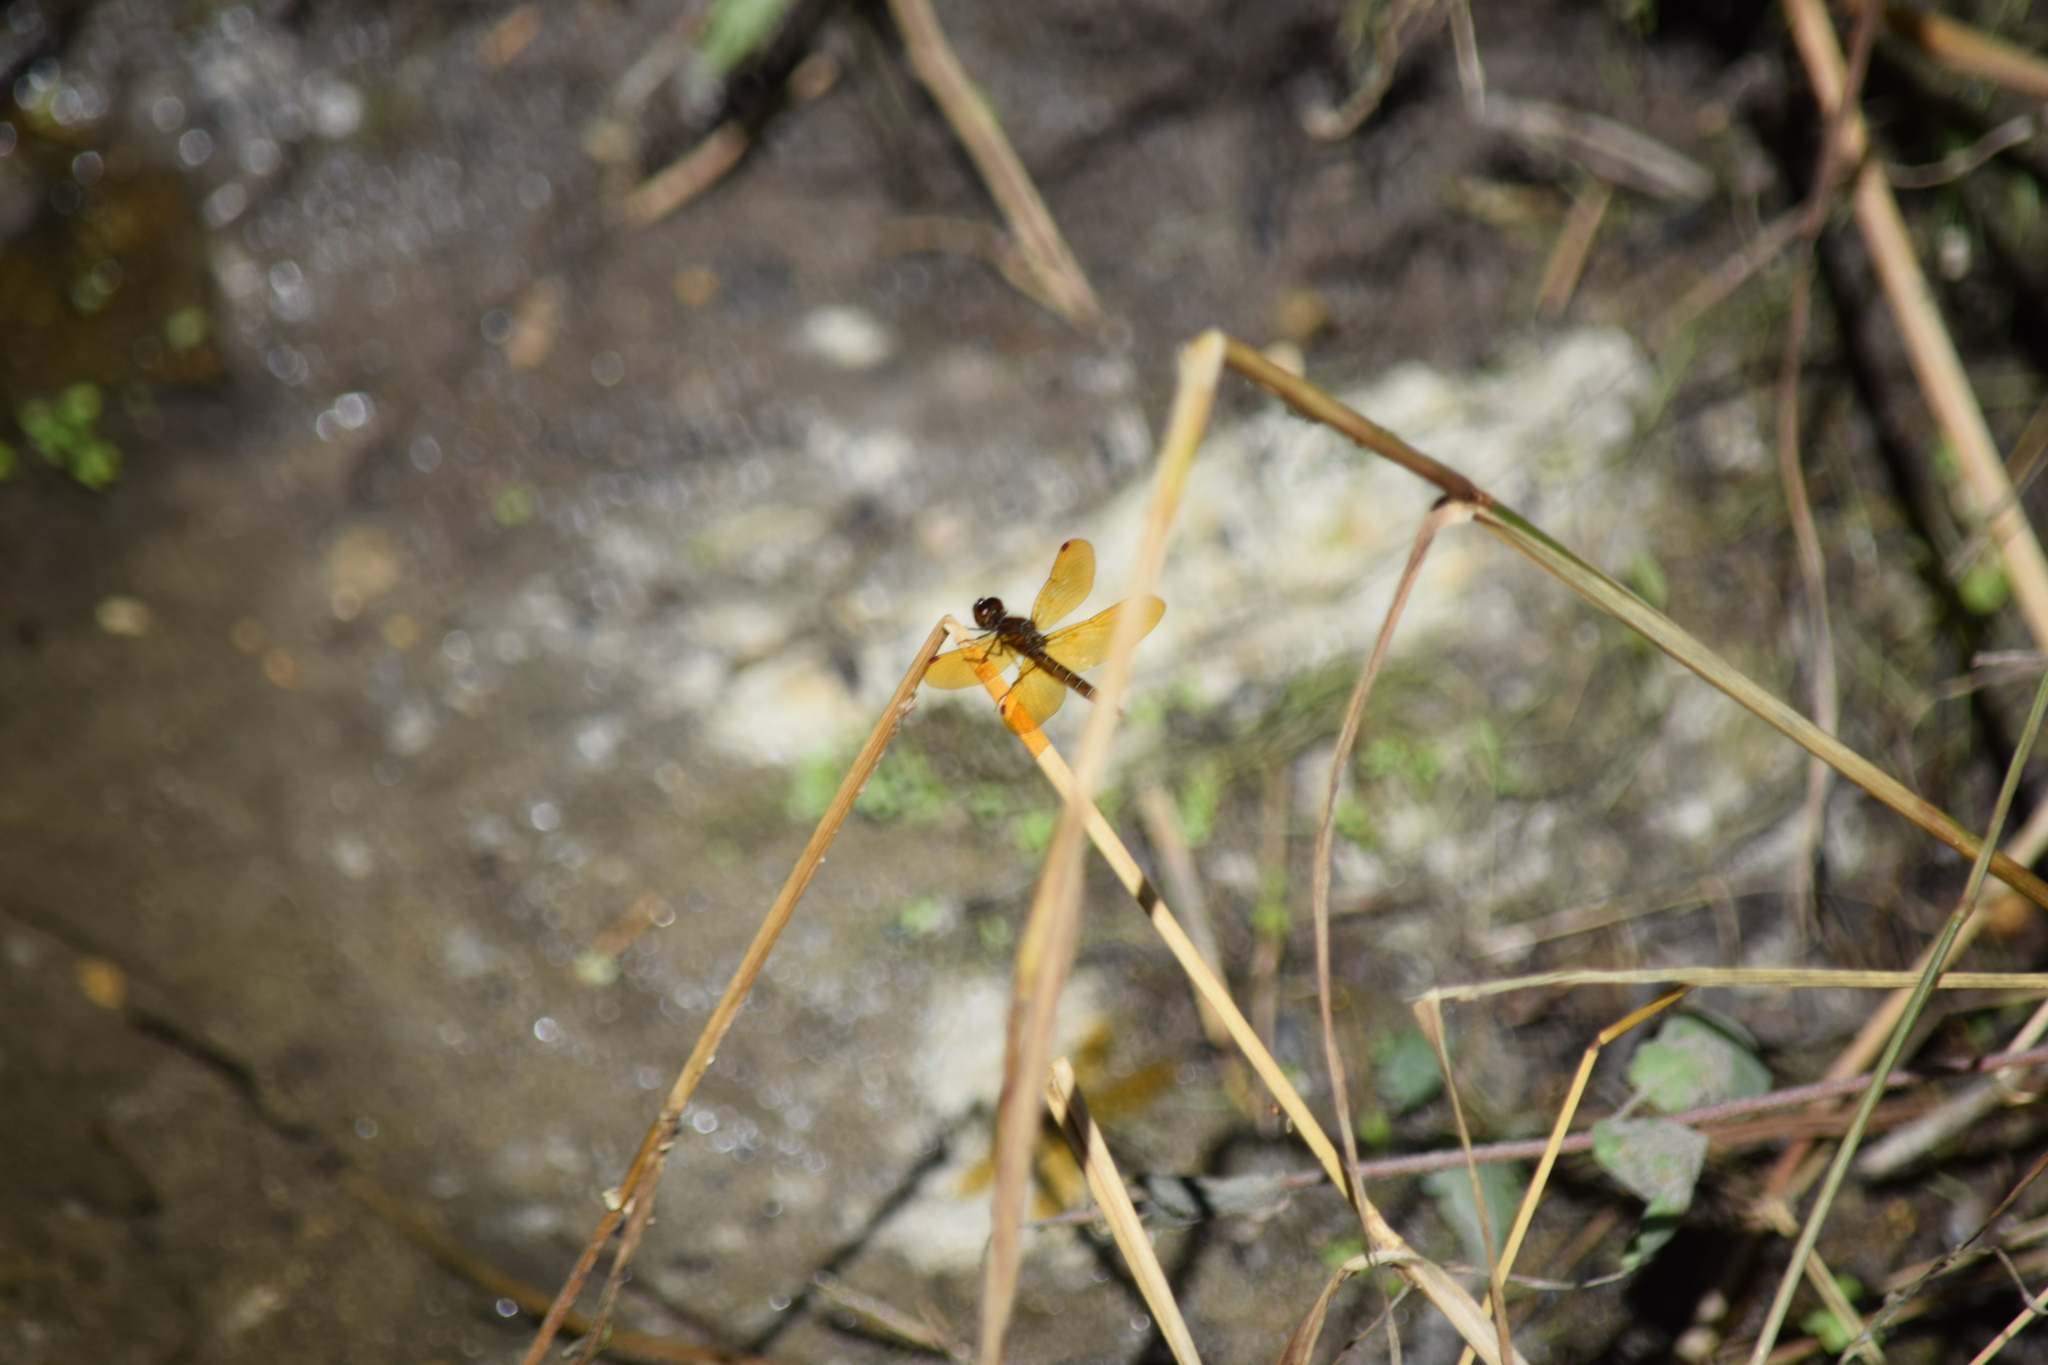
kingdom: Animalia
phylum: Arthropoda
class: Insecta
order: Odonata
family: Libellulidae
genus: Perithemis
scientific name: Perithemis tenera
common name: Eastern amberwing
